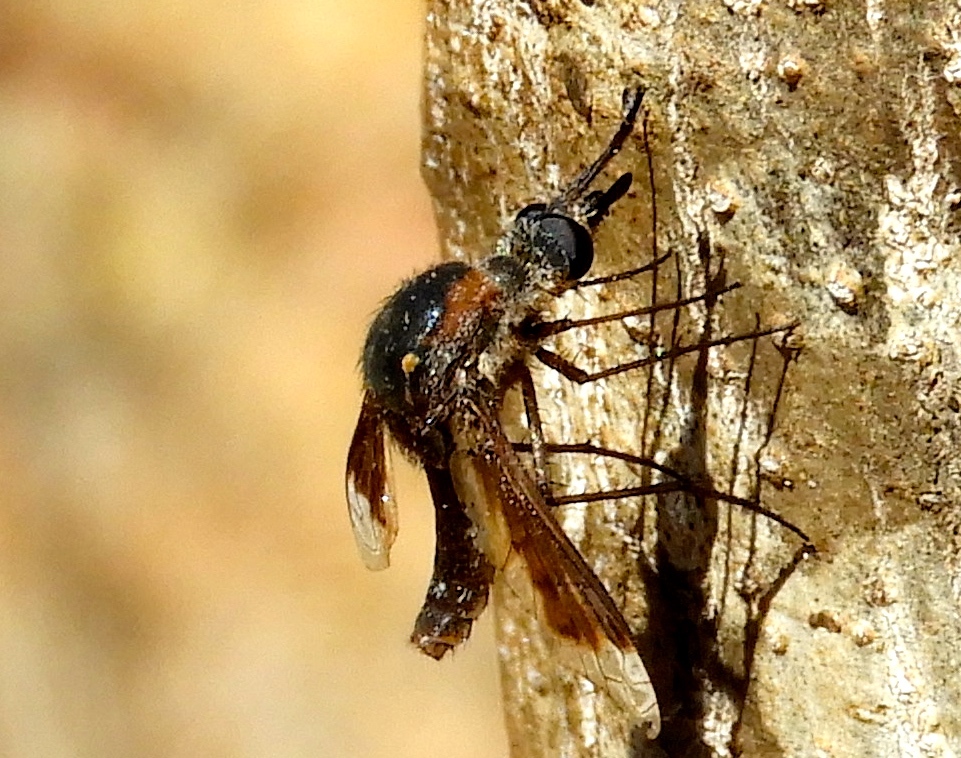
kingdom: Animalia
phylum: Arthropoda
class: Insecta
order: Diptera
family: Bombyliidae
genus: Lepidophora
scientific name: Lepidophora vetusta
